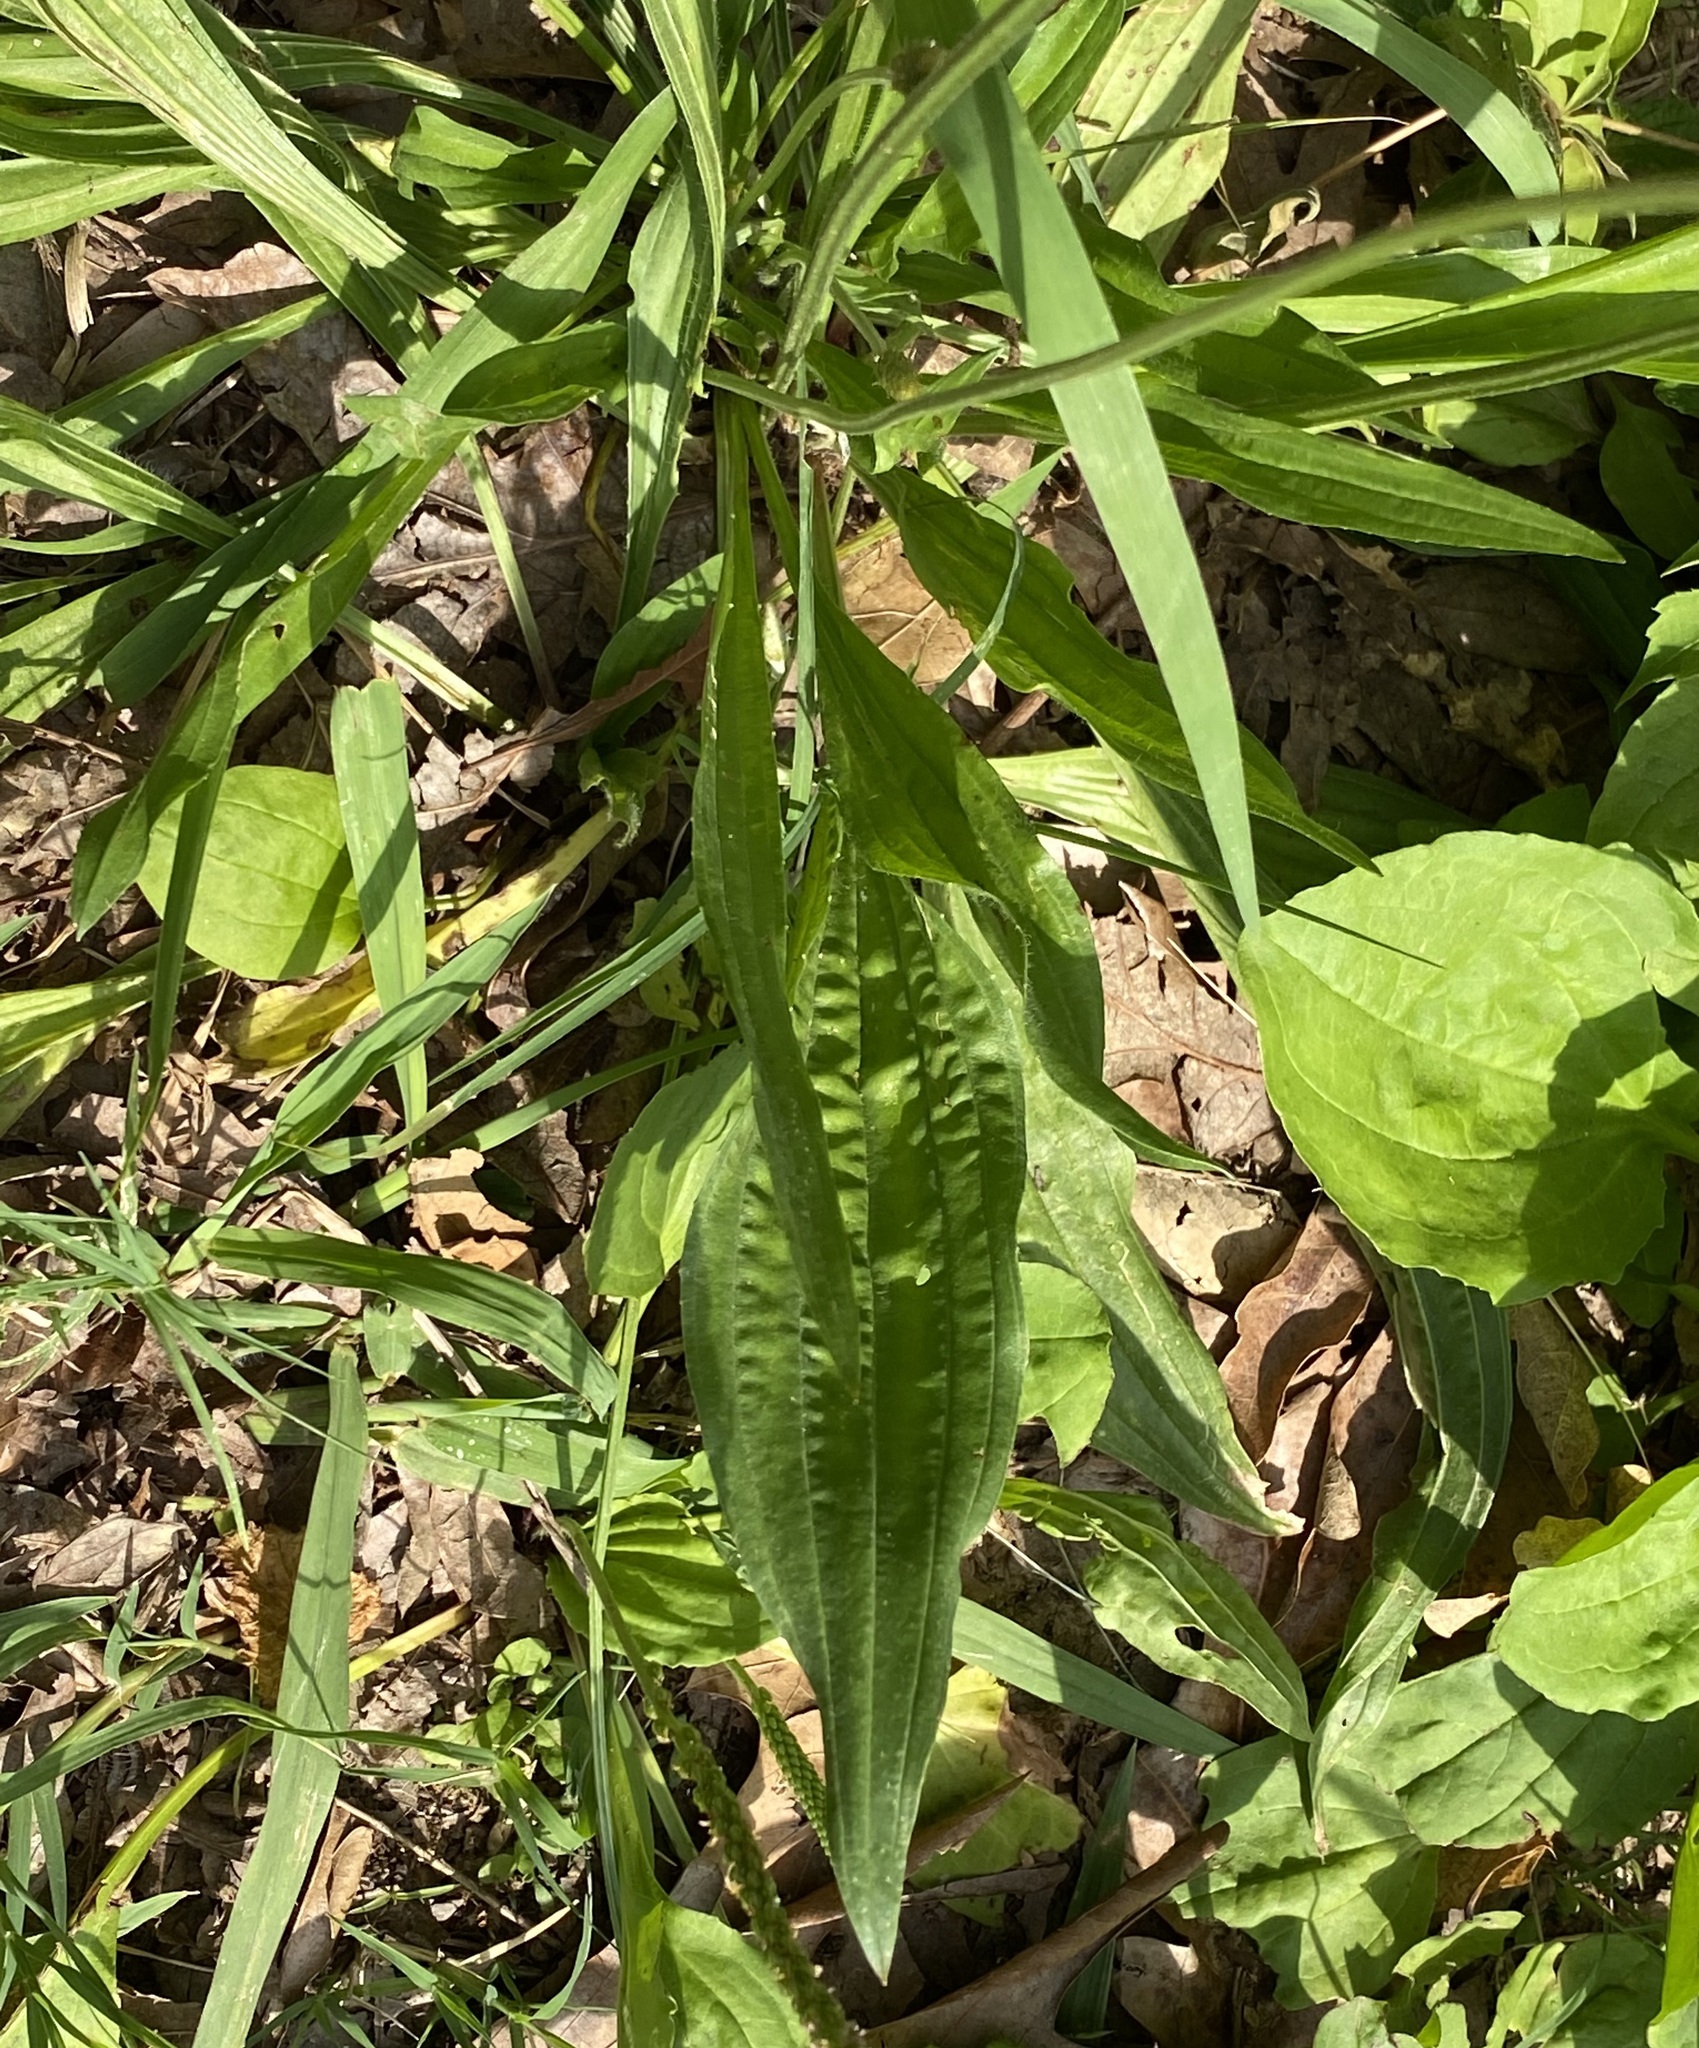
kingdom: Plantae
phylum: Tracheophyta
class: Magnoliopsida
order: Lamiales
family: Plantaginaceae
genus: Plantago
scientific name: Plantago lanceolata
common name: Ribwort plantain
